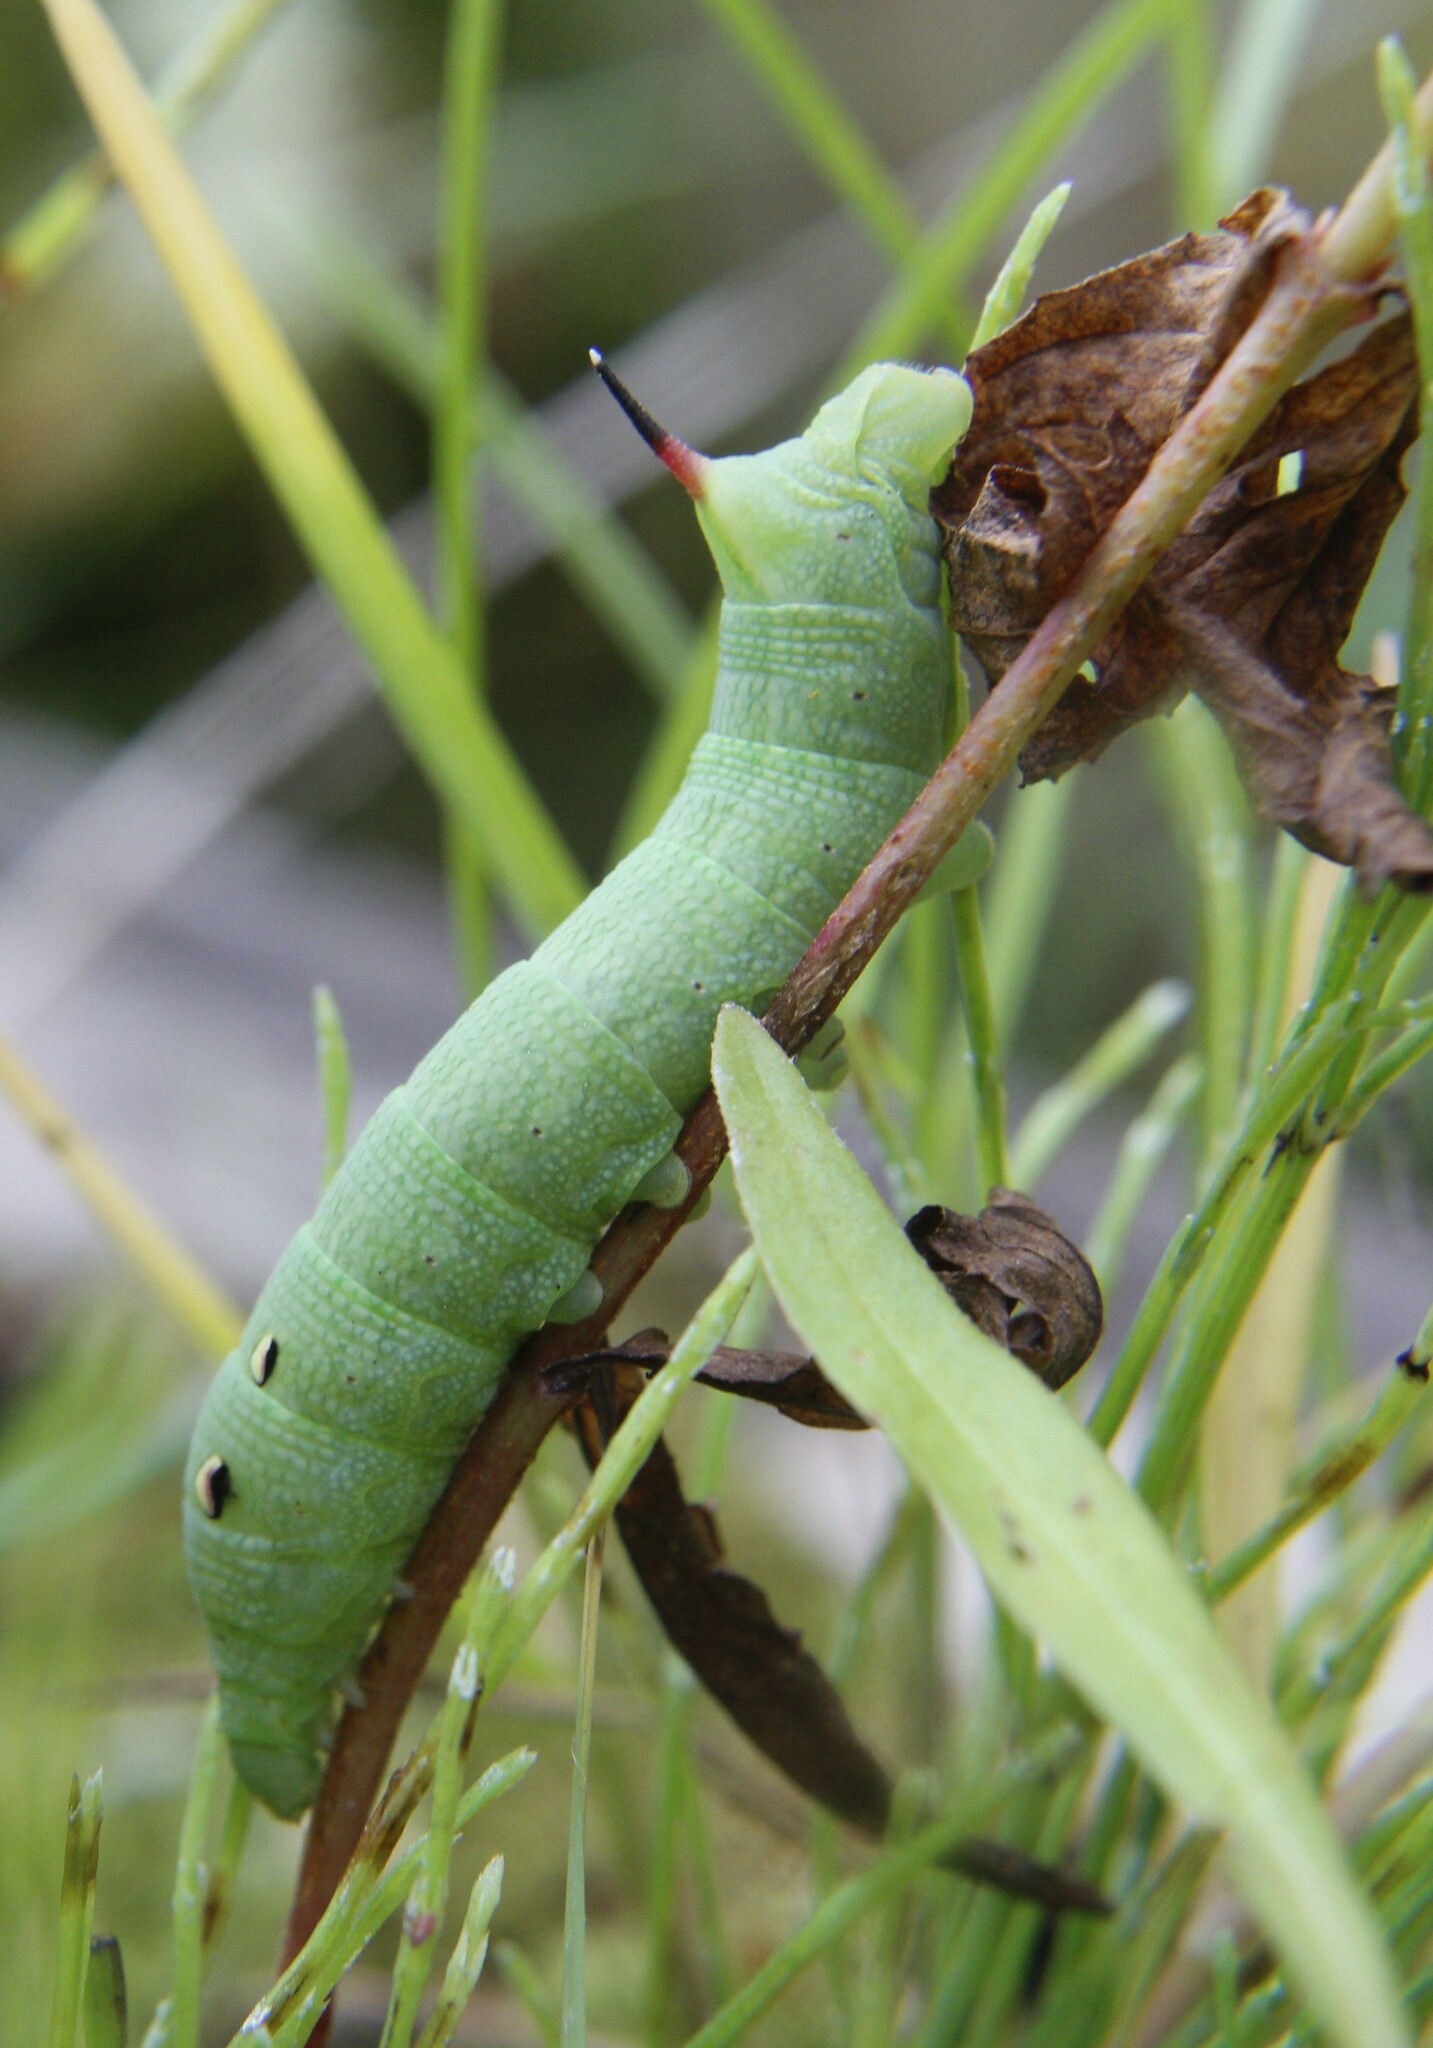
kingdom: Animalia
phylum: Arthropoda
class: Insecta
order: Lepidoptera
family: Sphingidae
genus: Deilephila
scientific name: Deilephila elpenor
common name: Elephant hawk-moth
